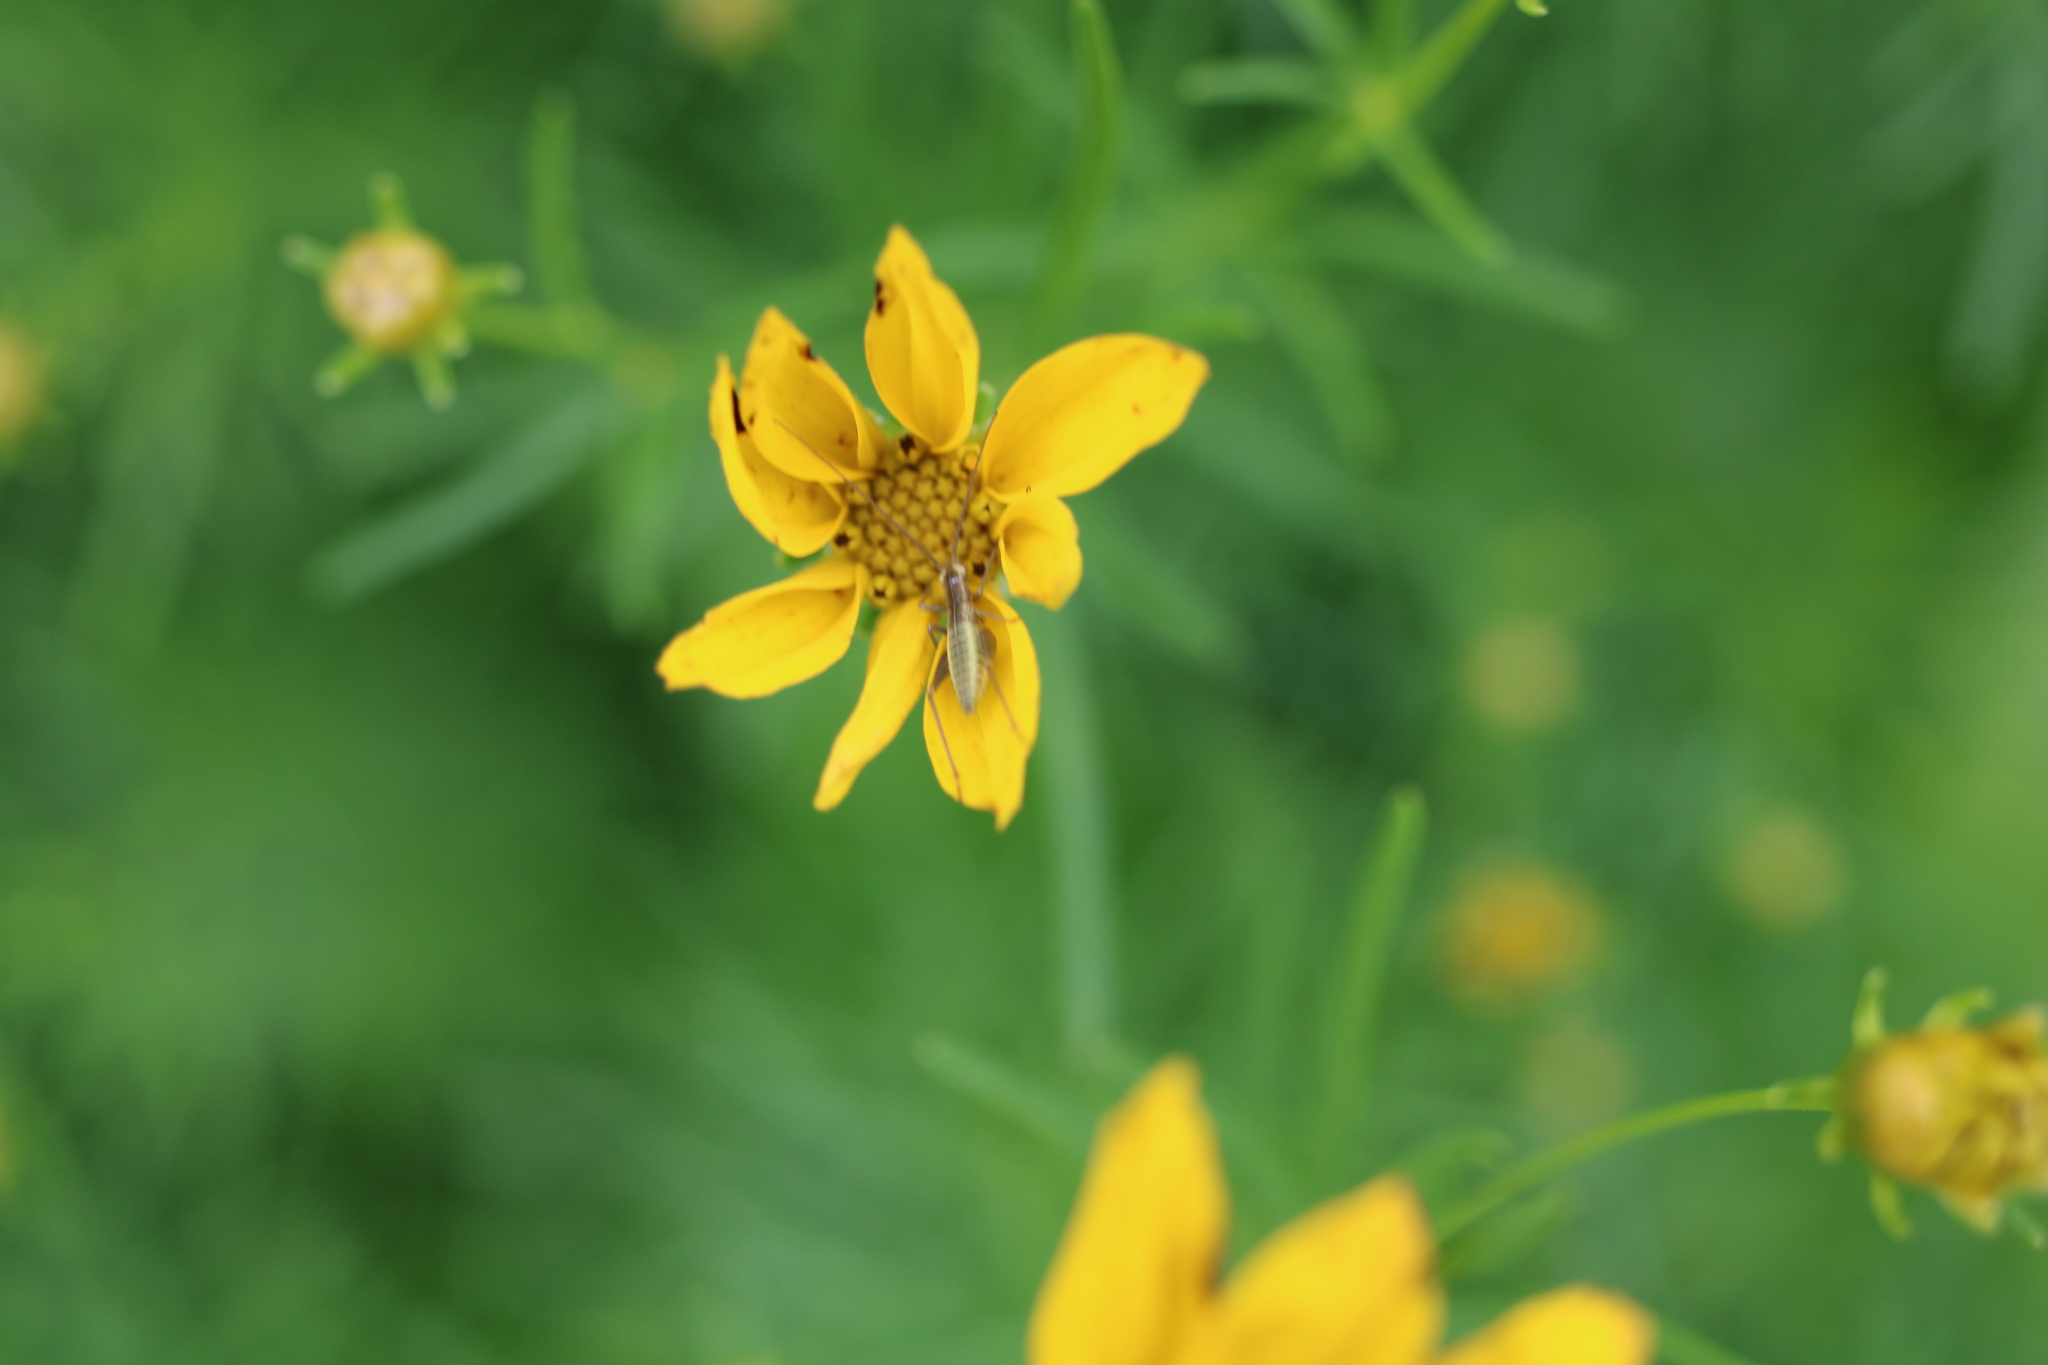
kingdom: Animalia
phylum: Arthropoda
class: Insecta
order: Orthoptera
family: Gryllidae
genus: Oecanthus
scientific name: Oecanthus pini
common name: Pine tree cricket
